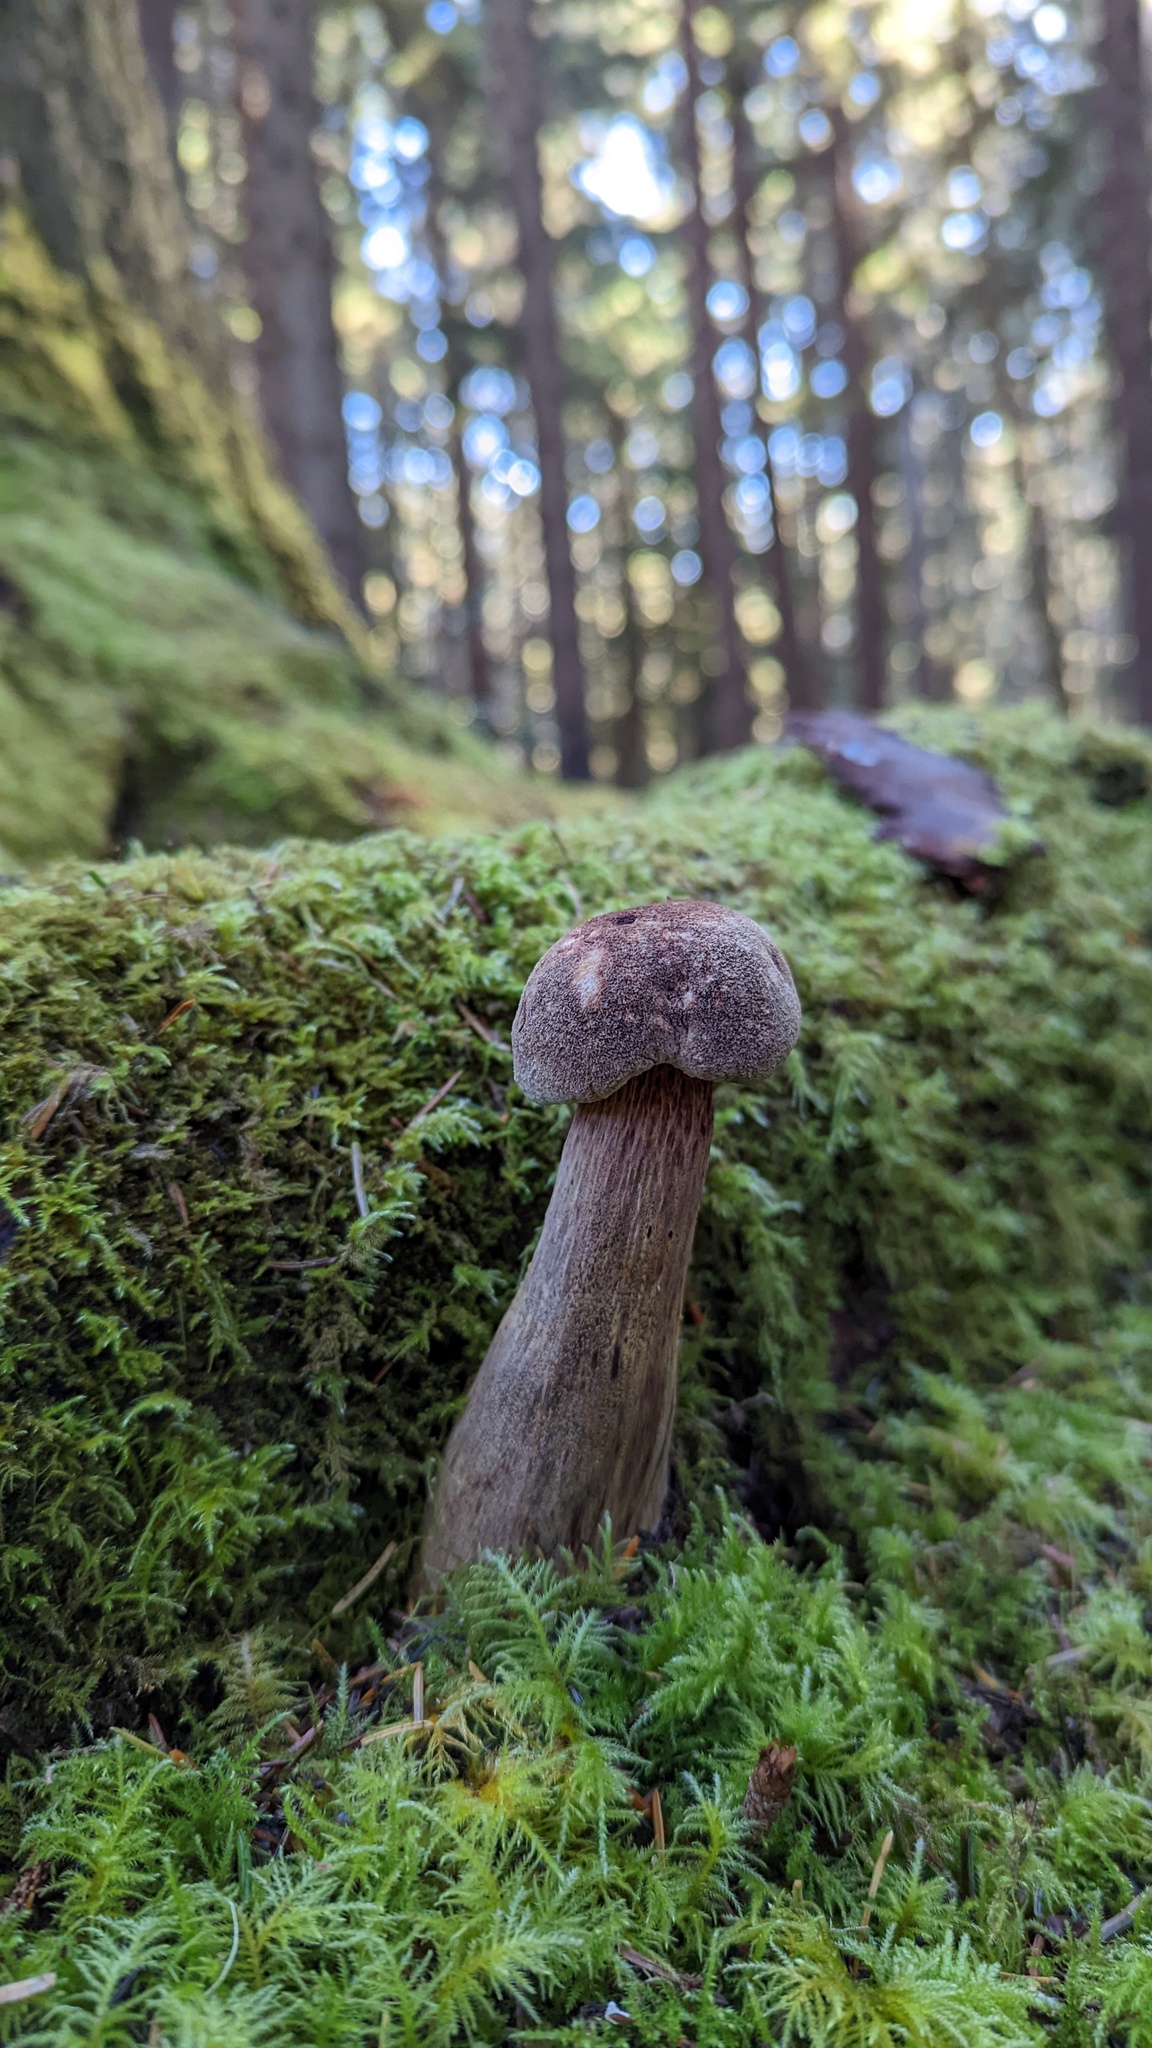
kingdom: Fungi
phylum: Basidiomycota
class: Agaricomycetes
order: Boletales
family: Boletaceae
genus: Aureoboletus
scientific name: Aureoboletus mirabilis
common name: Admirable bolete
